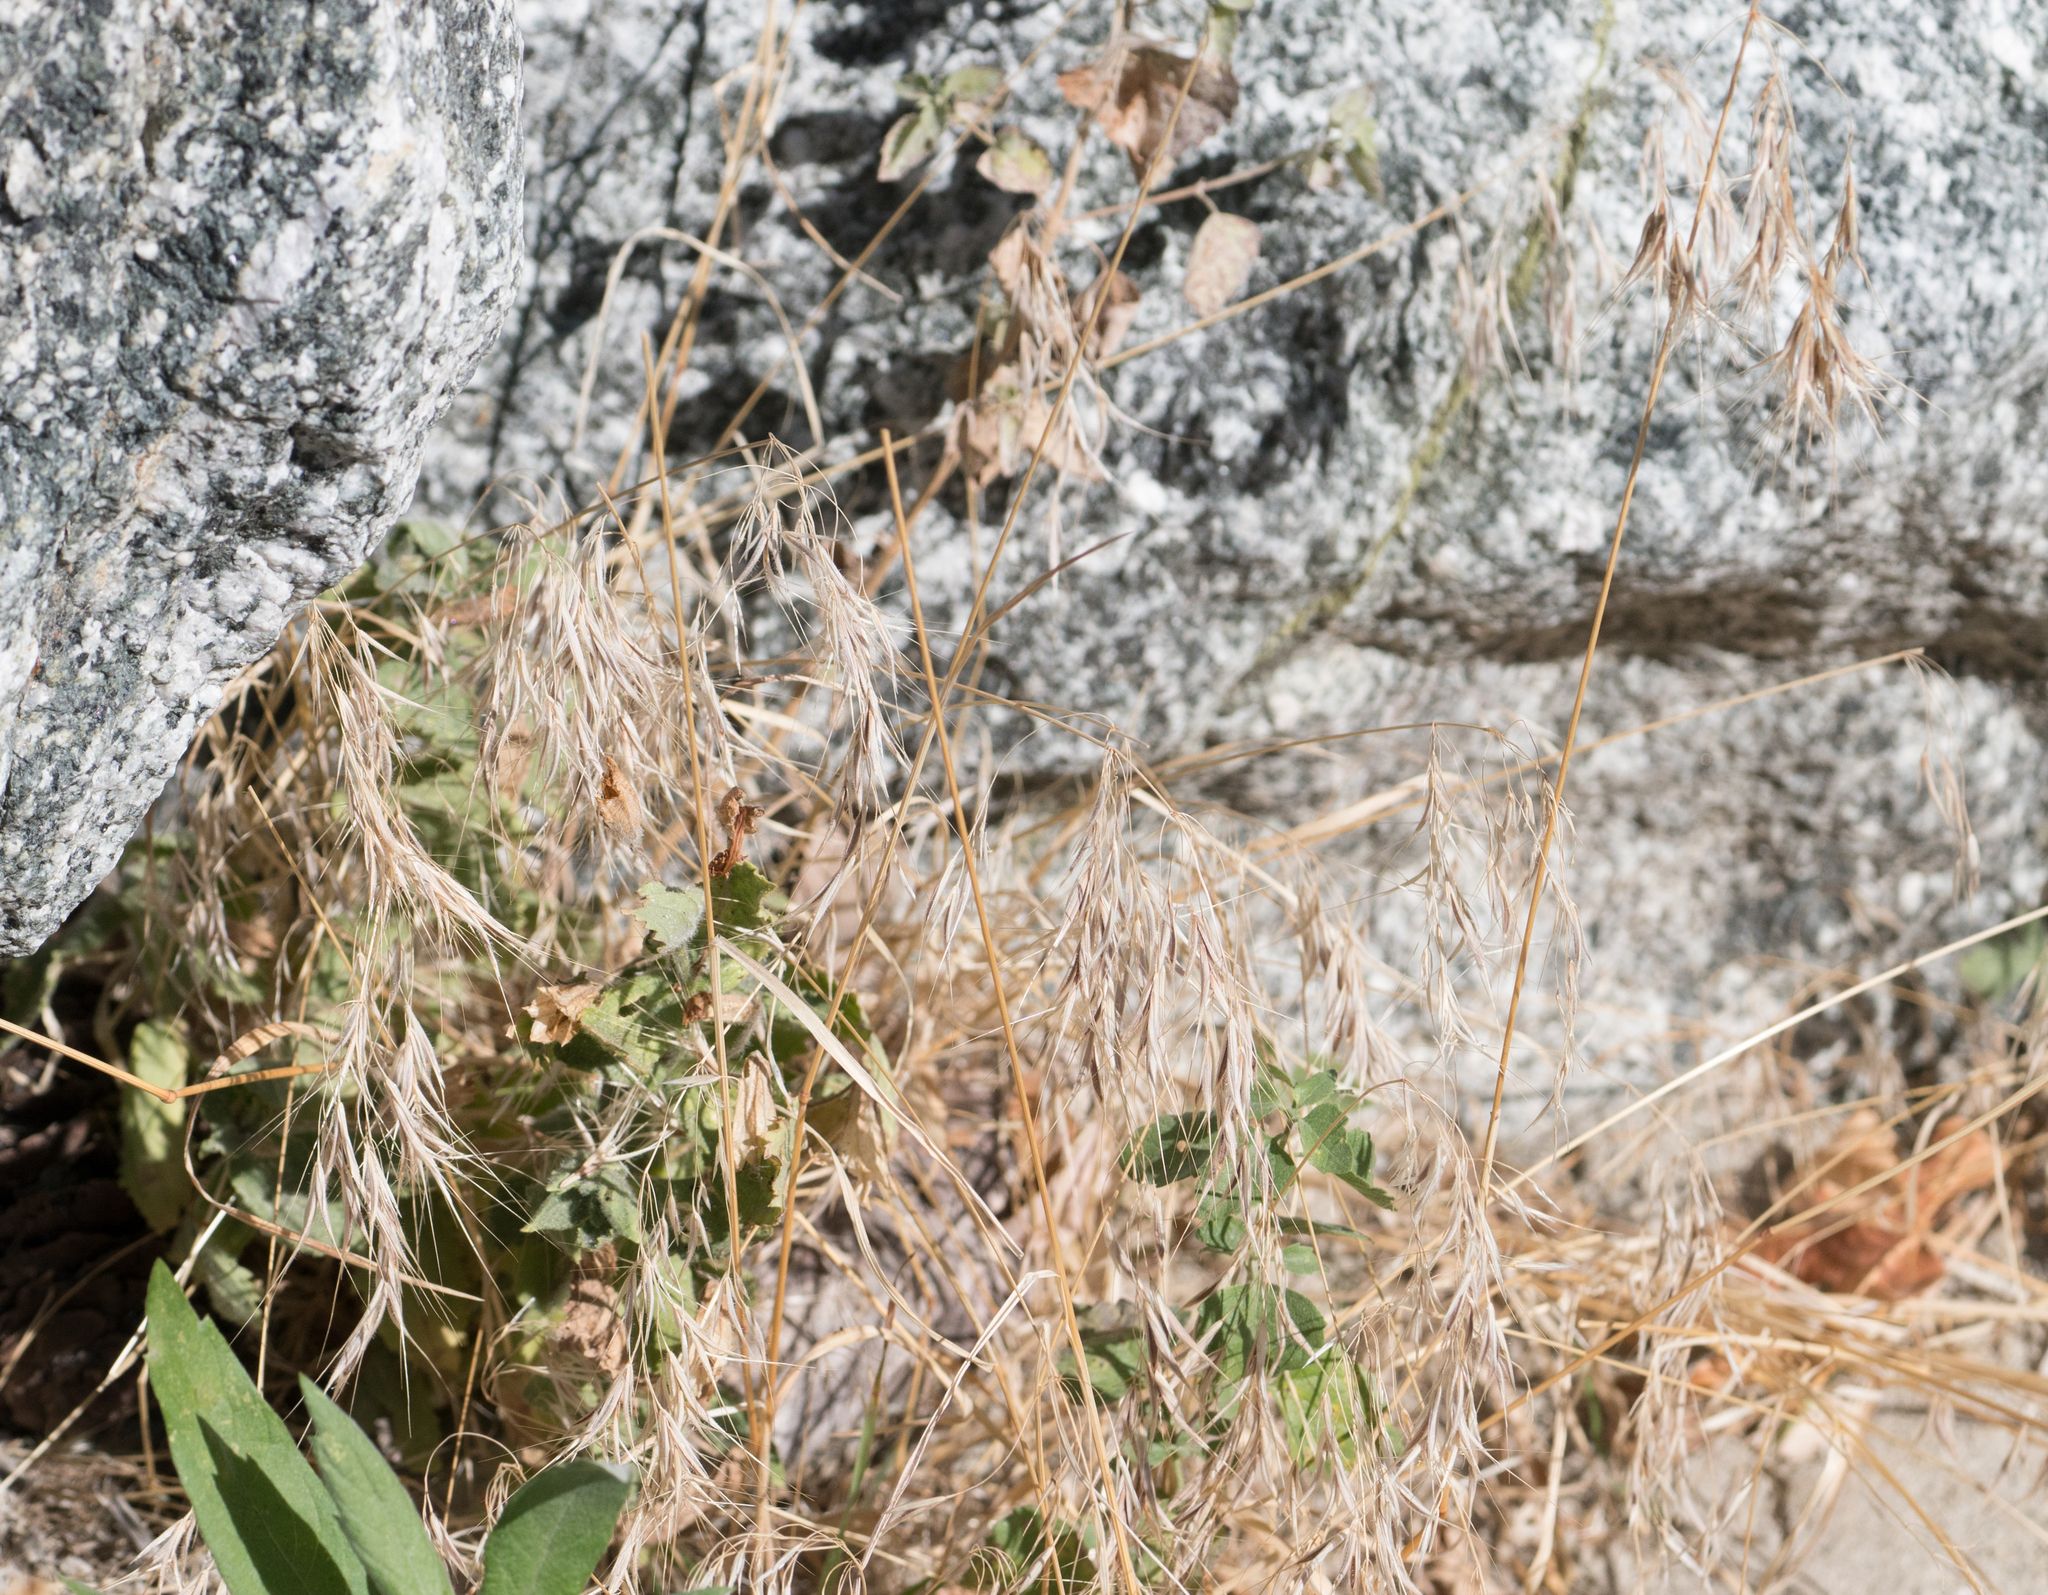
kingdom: Plantae
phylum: Tracheophyta
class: Liliopsida
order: Poales
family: Poaceae
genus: Bromus
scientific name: Bromus tectorum
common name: Cheatgrass
